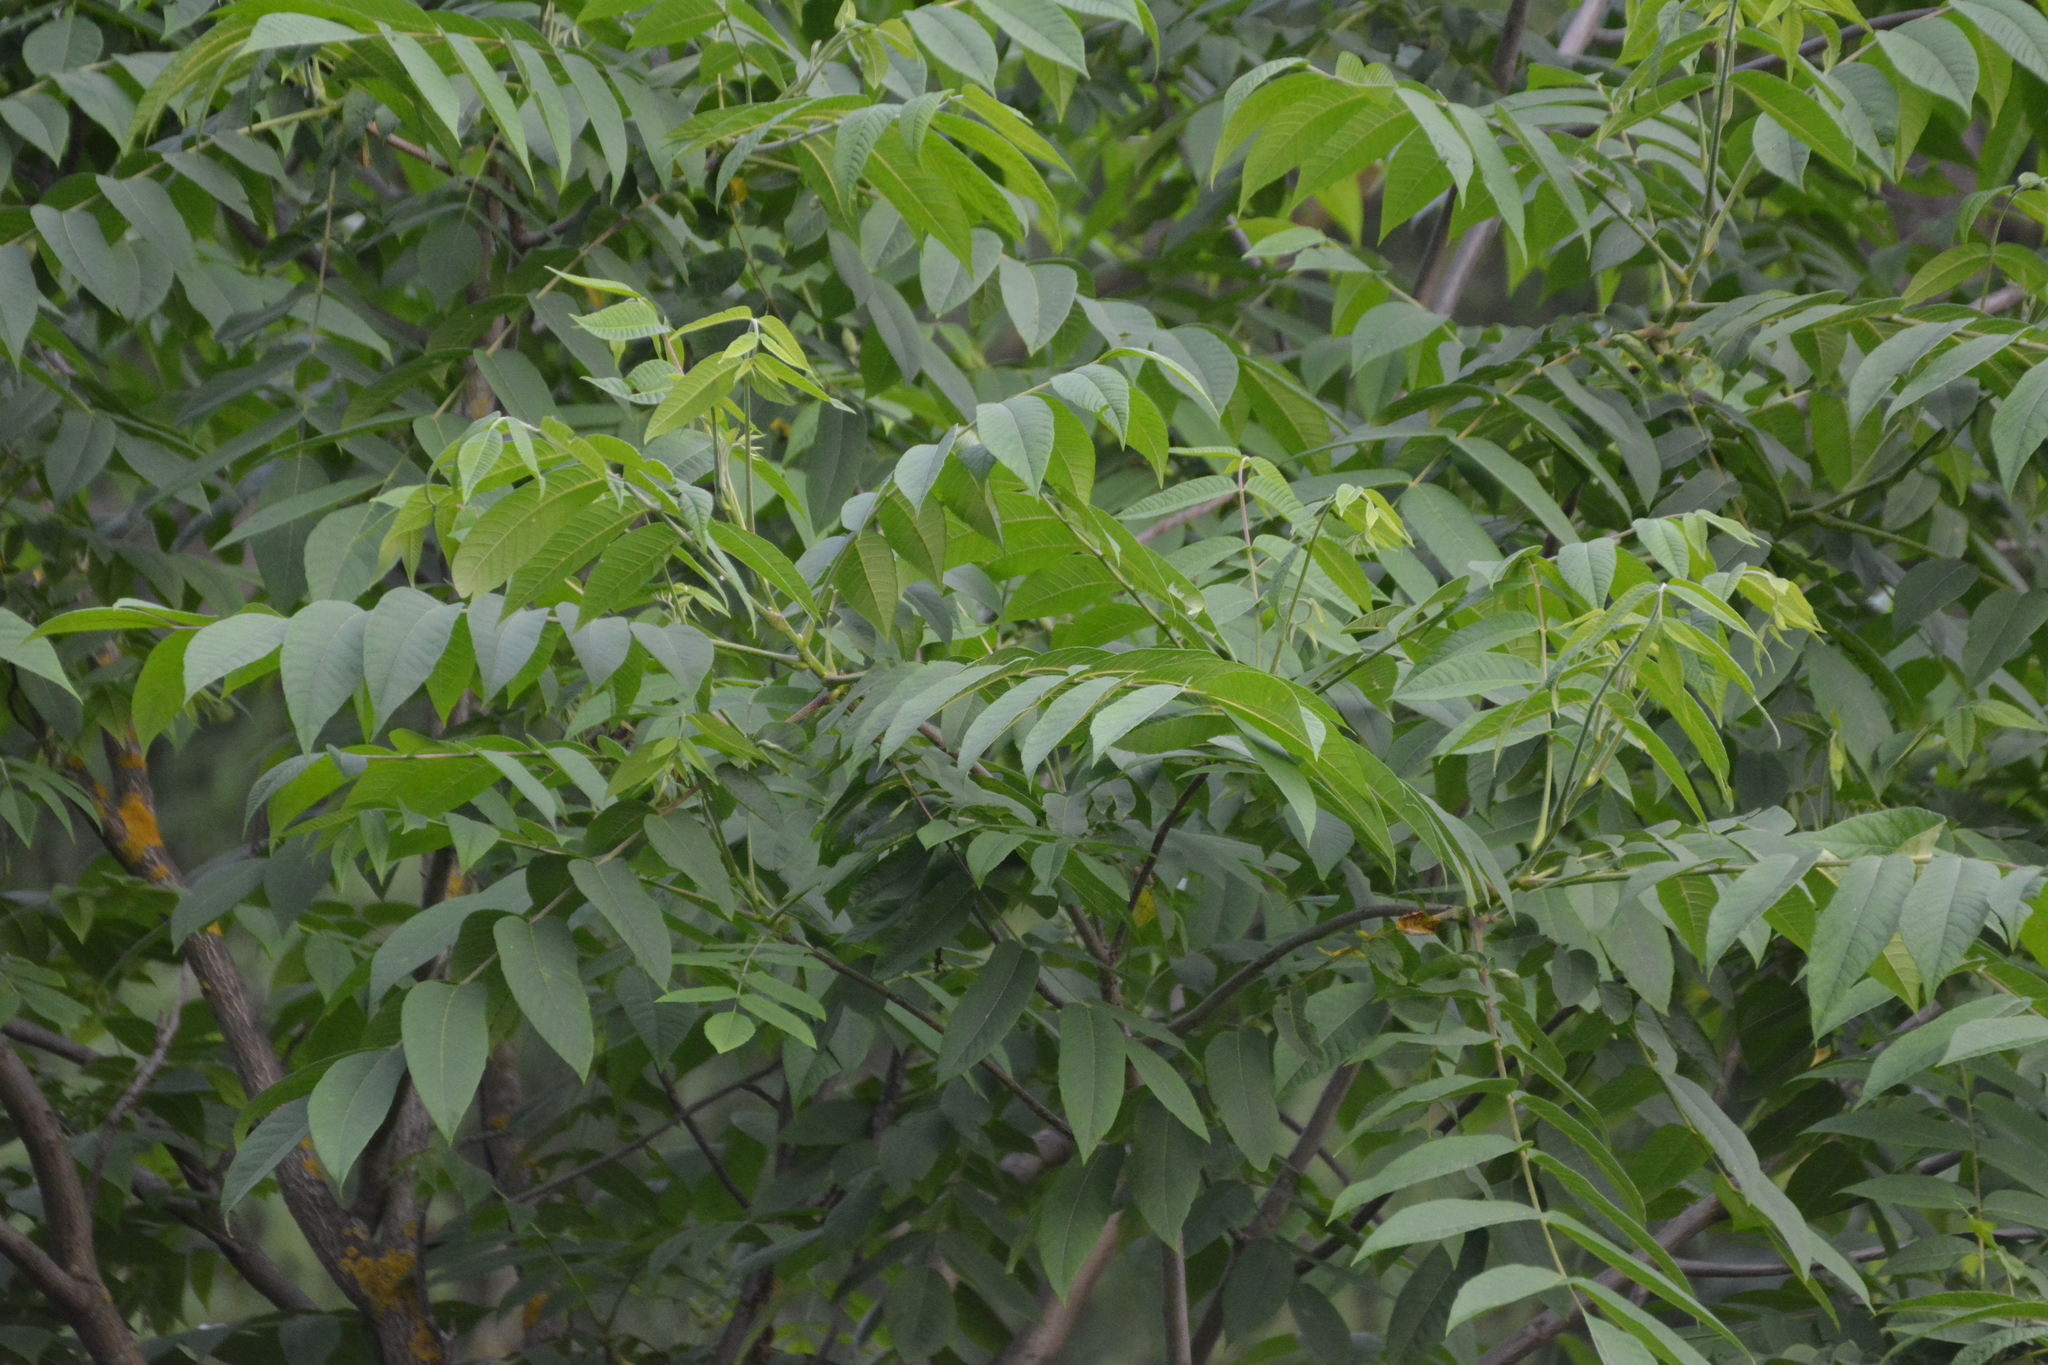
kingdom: Plantae
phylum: Tracheophyta
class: Magnoliopsida
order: Fagales
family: Juglandaceae
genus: Juglans
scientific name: Juglans mandshurica
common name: Manchurian walnut
